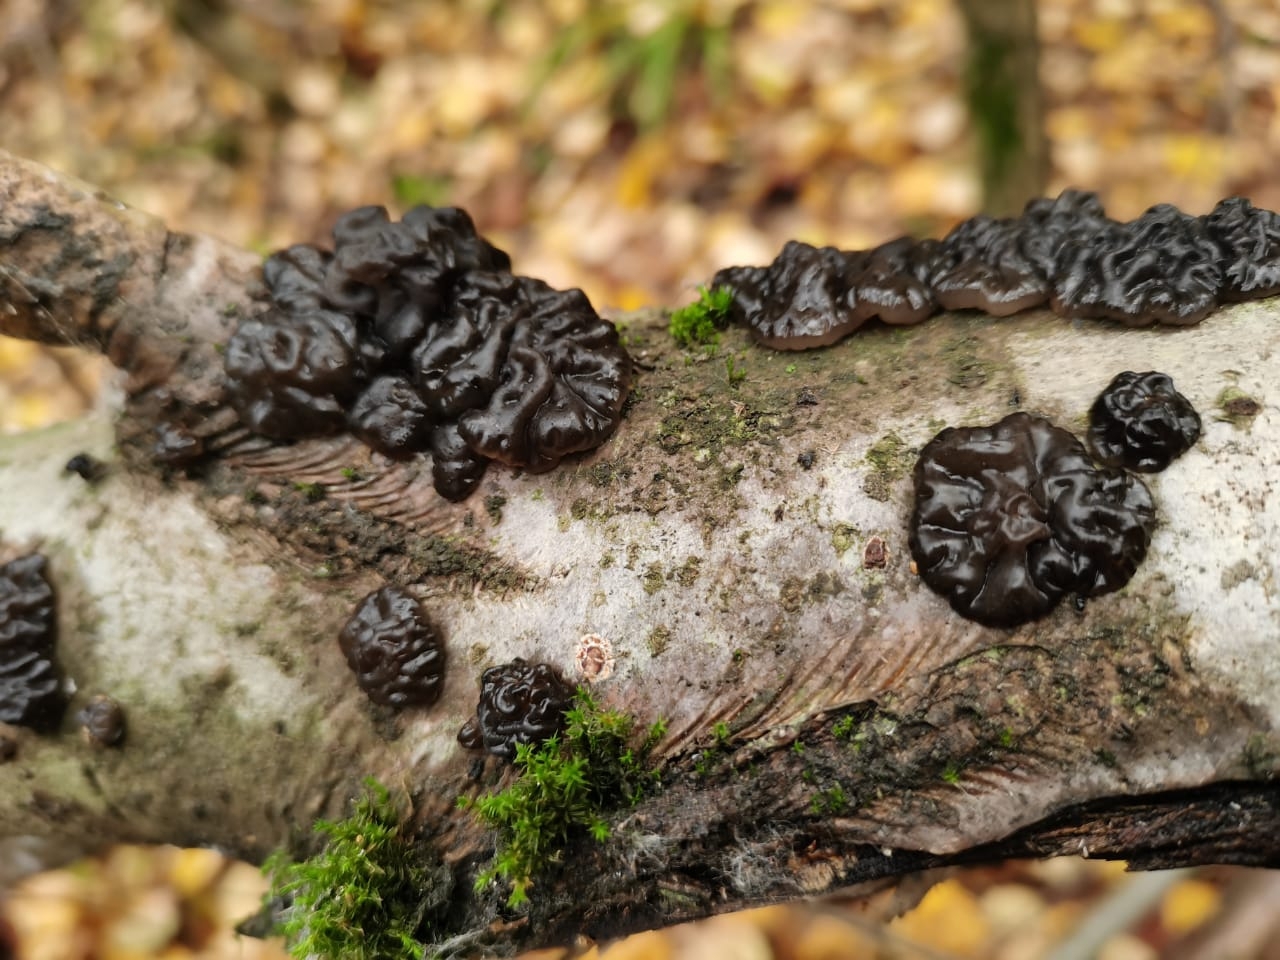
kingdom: Fungi
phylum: Basidiomycota
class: Agaricomycetes
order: Auriculariales
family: Auriculariaceae
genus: Exidia
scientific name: Exidia nigricans
